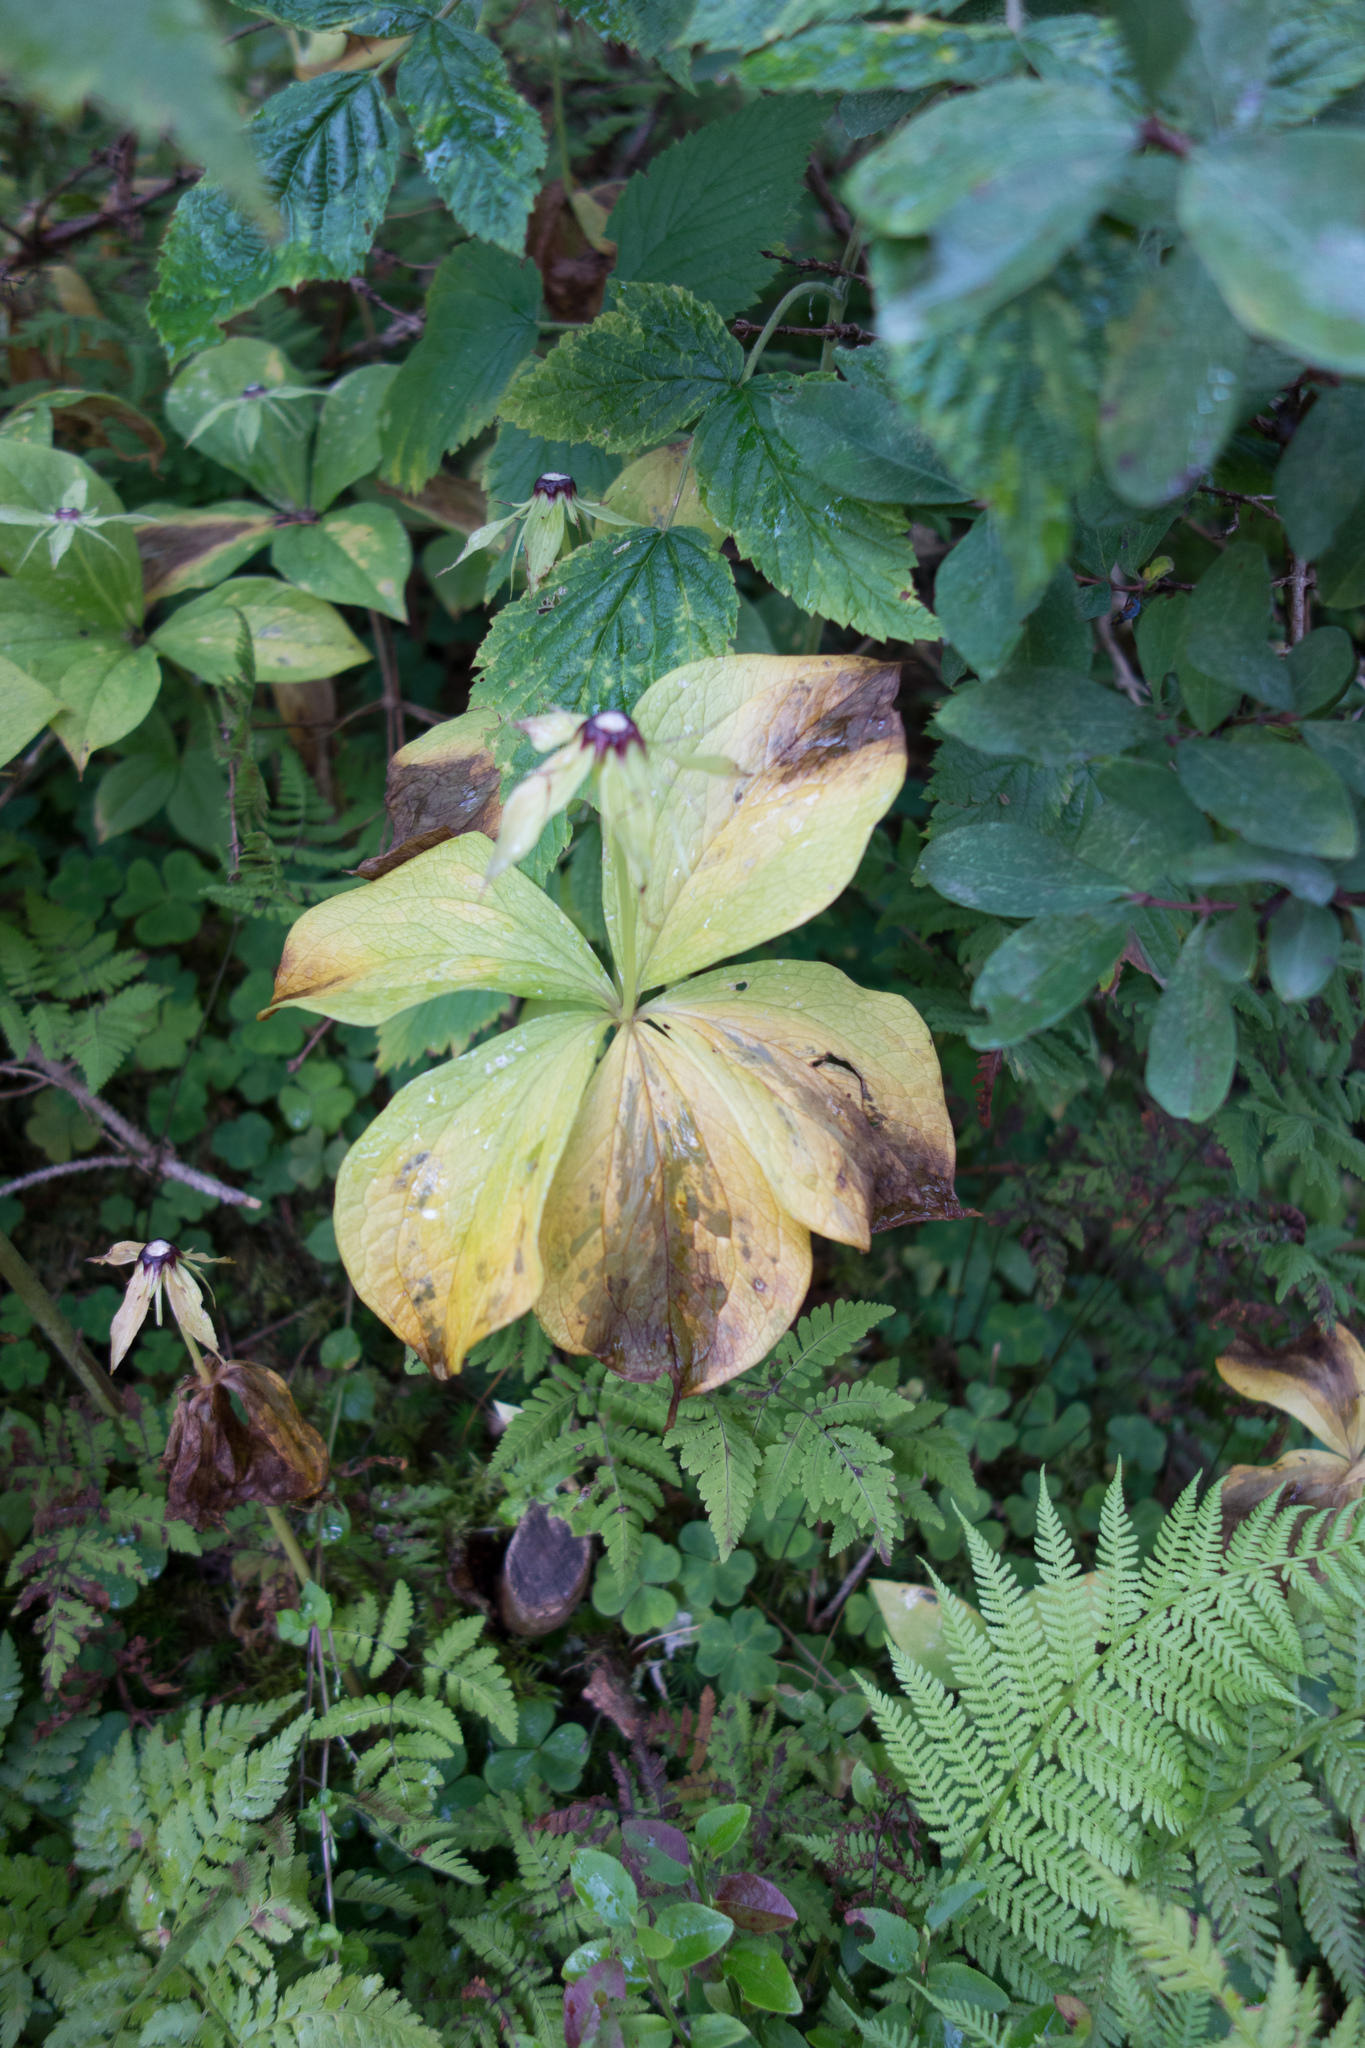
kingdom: Plantae
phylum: Tracheophyta
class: Liliopsida
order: Liliales
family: Melanthiaceae
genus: Paris
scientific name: Paris quadrifolia
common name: Herb-paris
